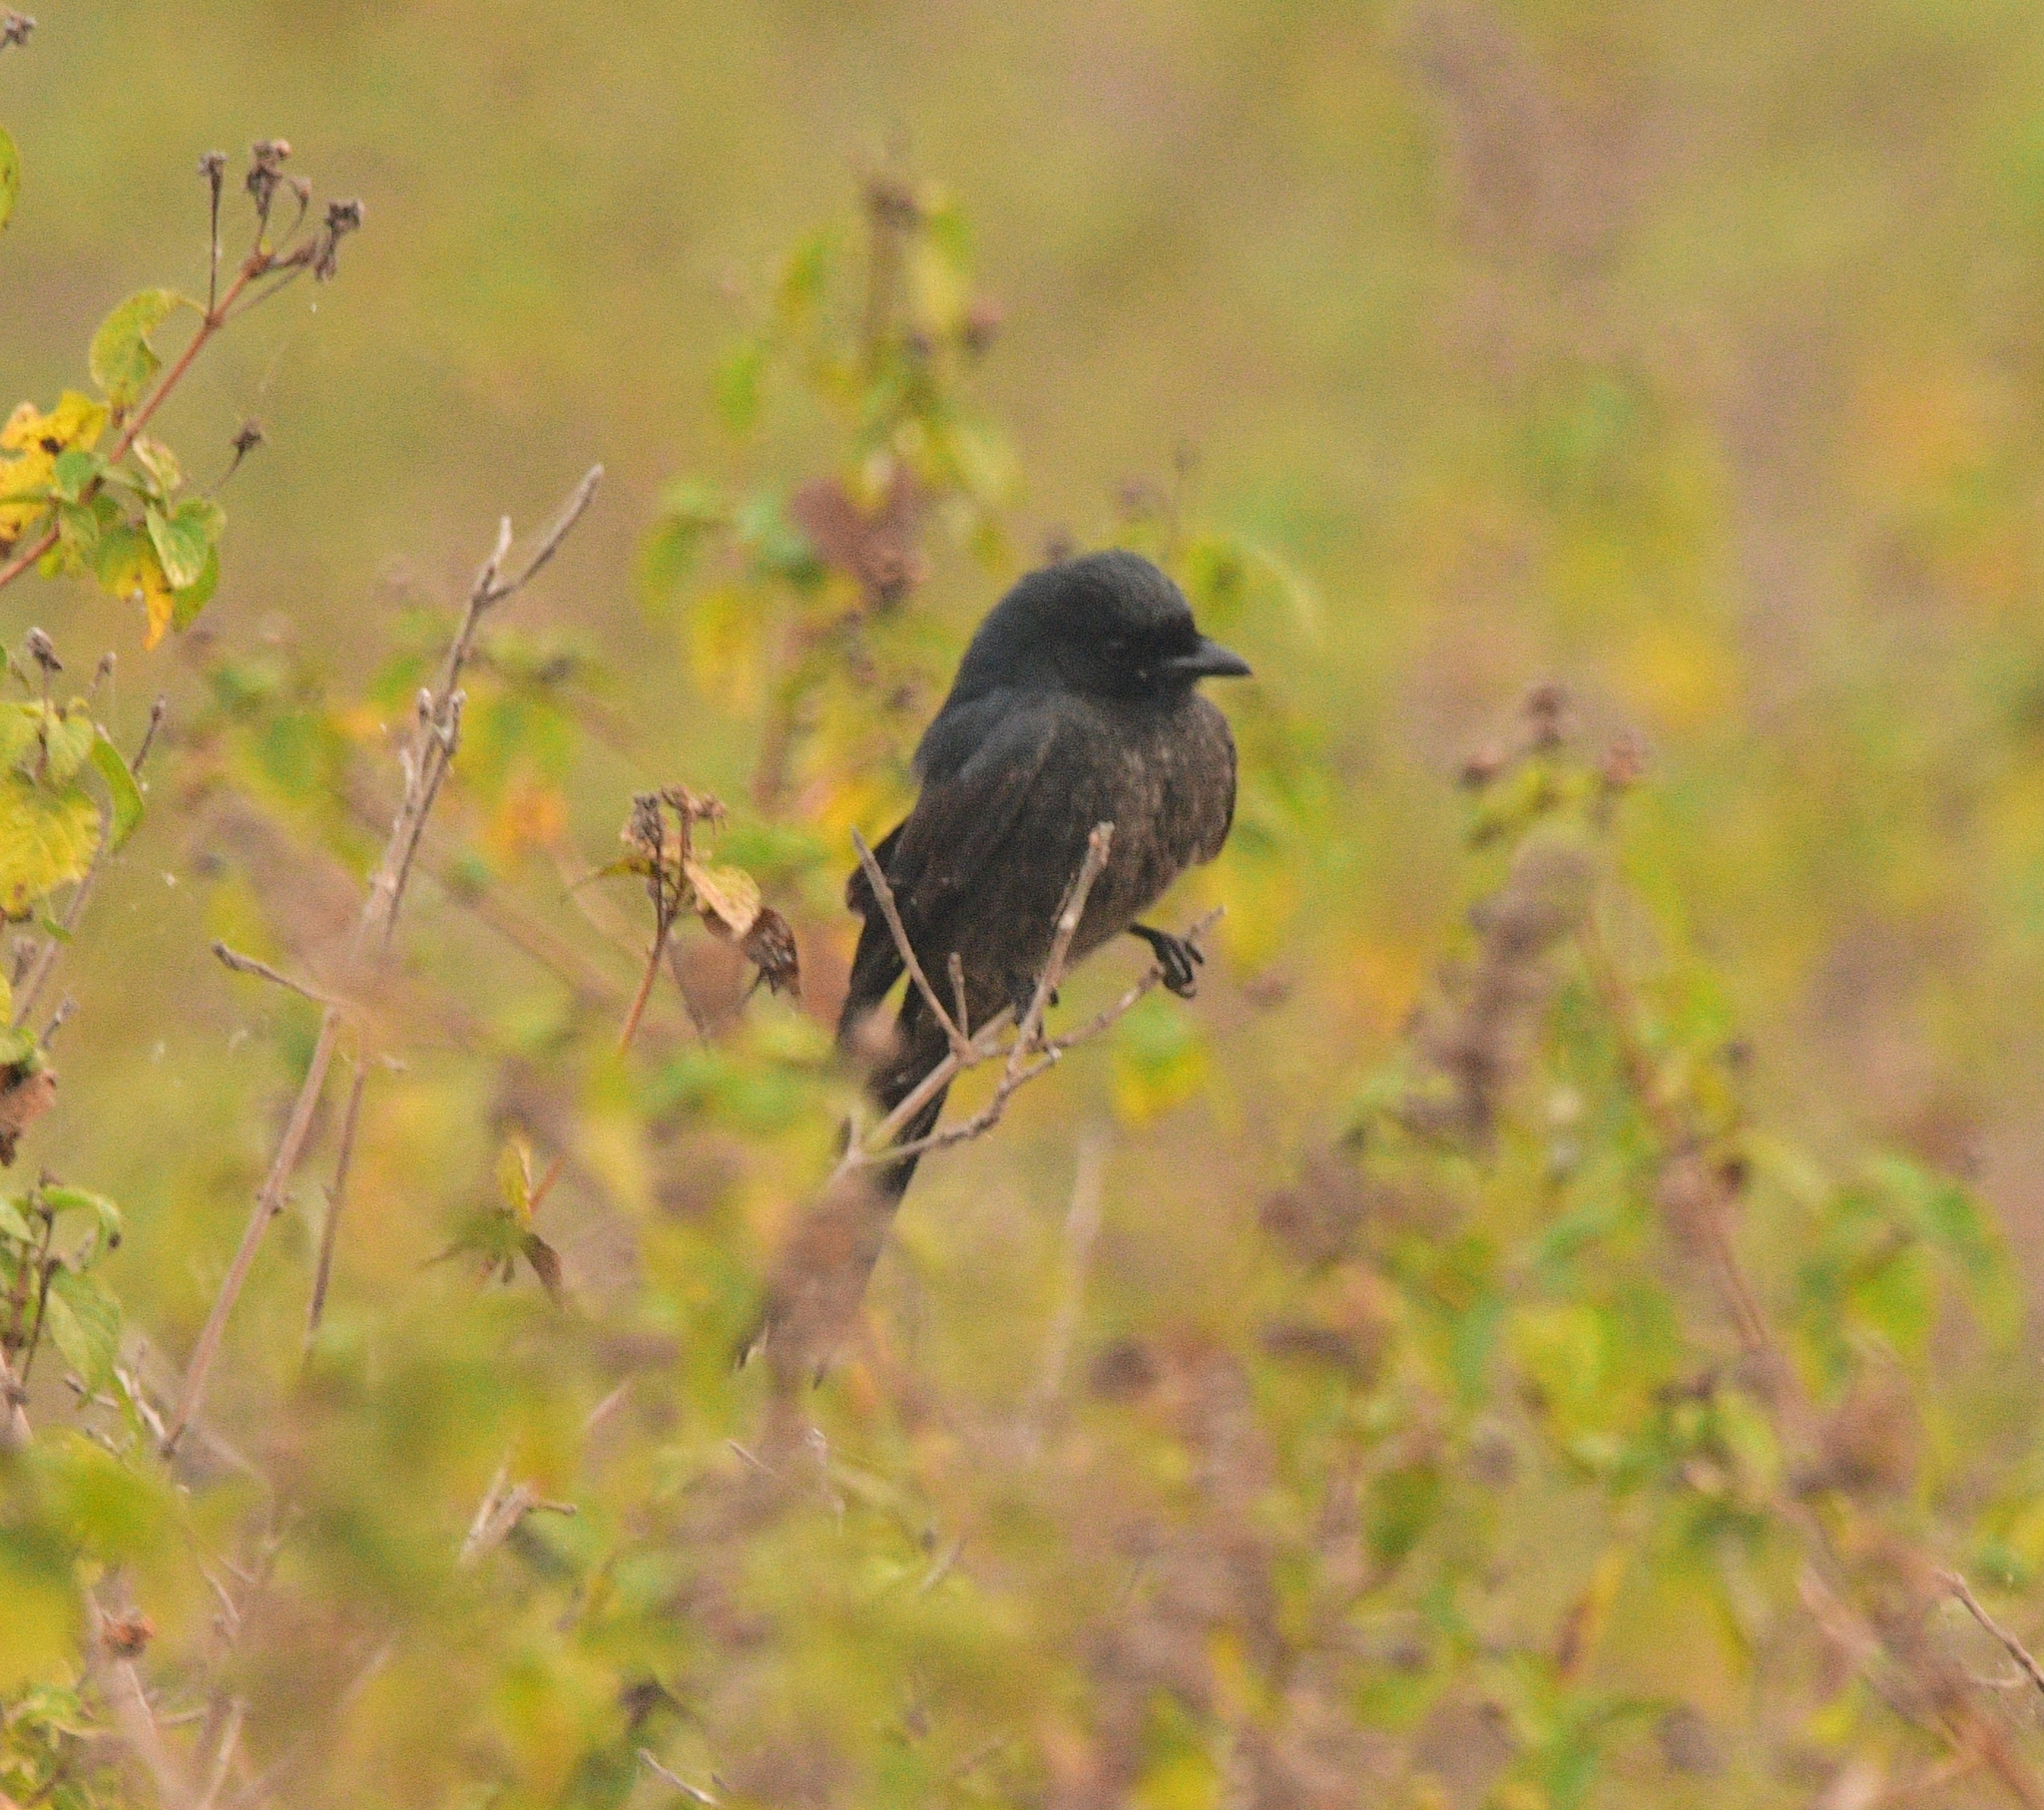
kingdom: Animalia
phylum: Chordata
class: Aves
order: Passeriformes
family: Dicruridae
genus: Dicrurus
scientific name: Dicrurus macrocercus
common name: Black drongo
